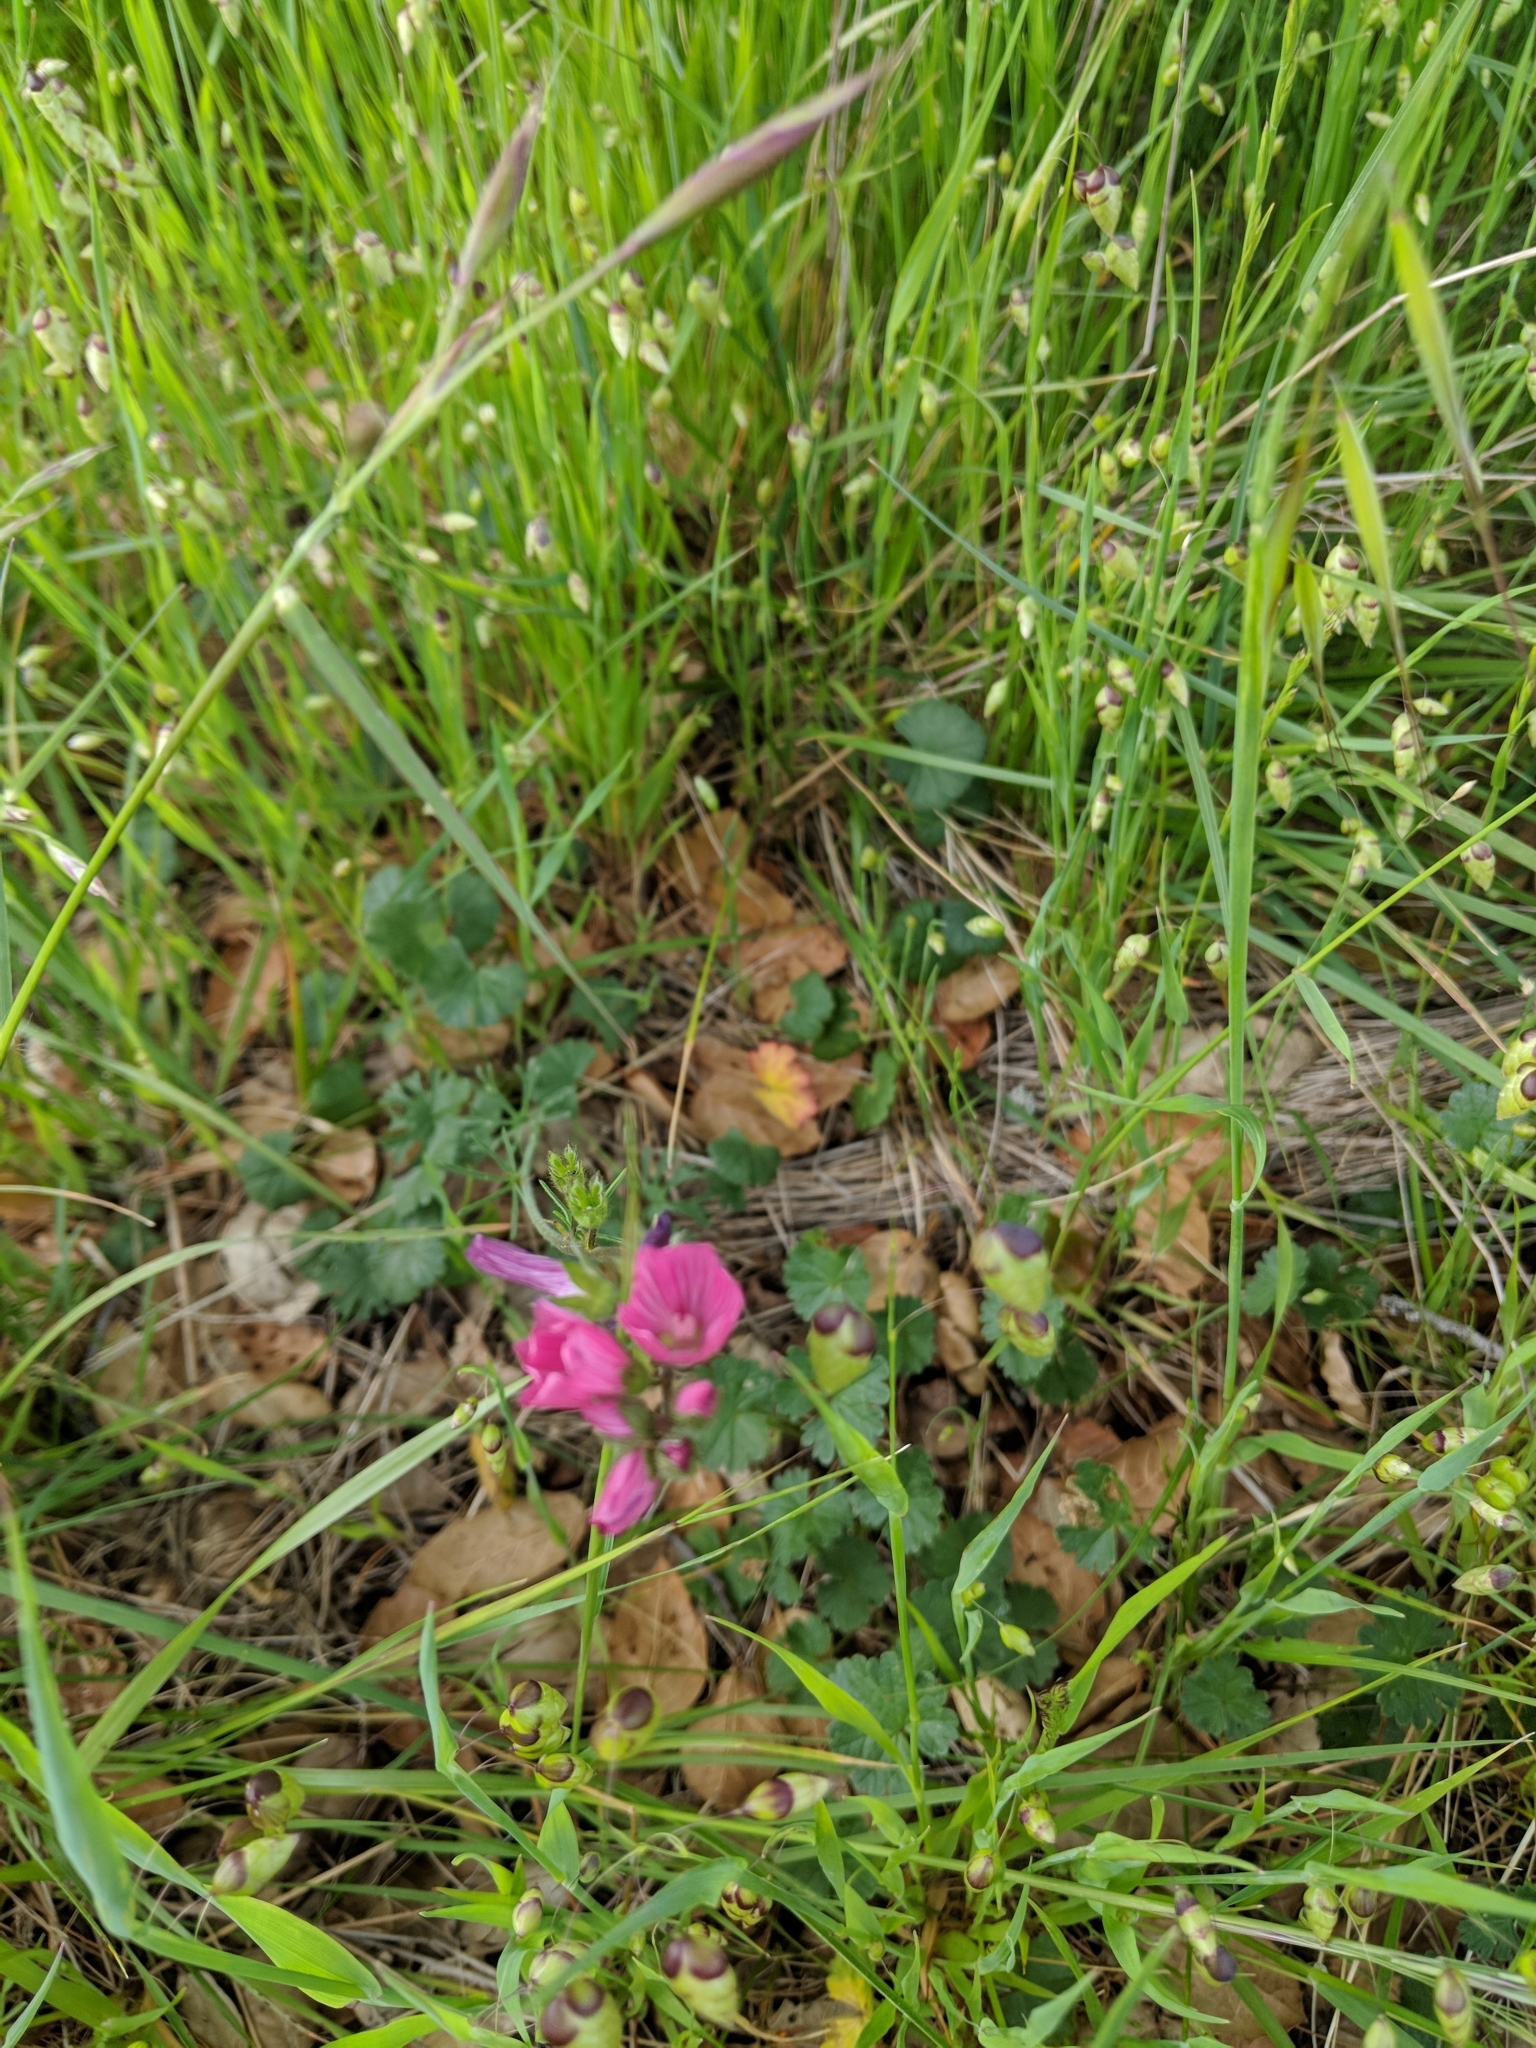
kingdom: Plantae
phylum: Tracheophyta
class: Magnoliopsida
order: Malvales
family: Malvaceae
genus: Sidalcea
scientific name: Sidalcea malviflora
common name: Greek mallow
